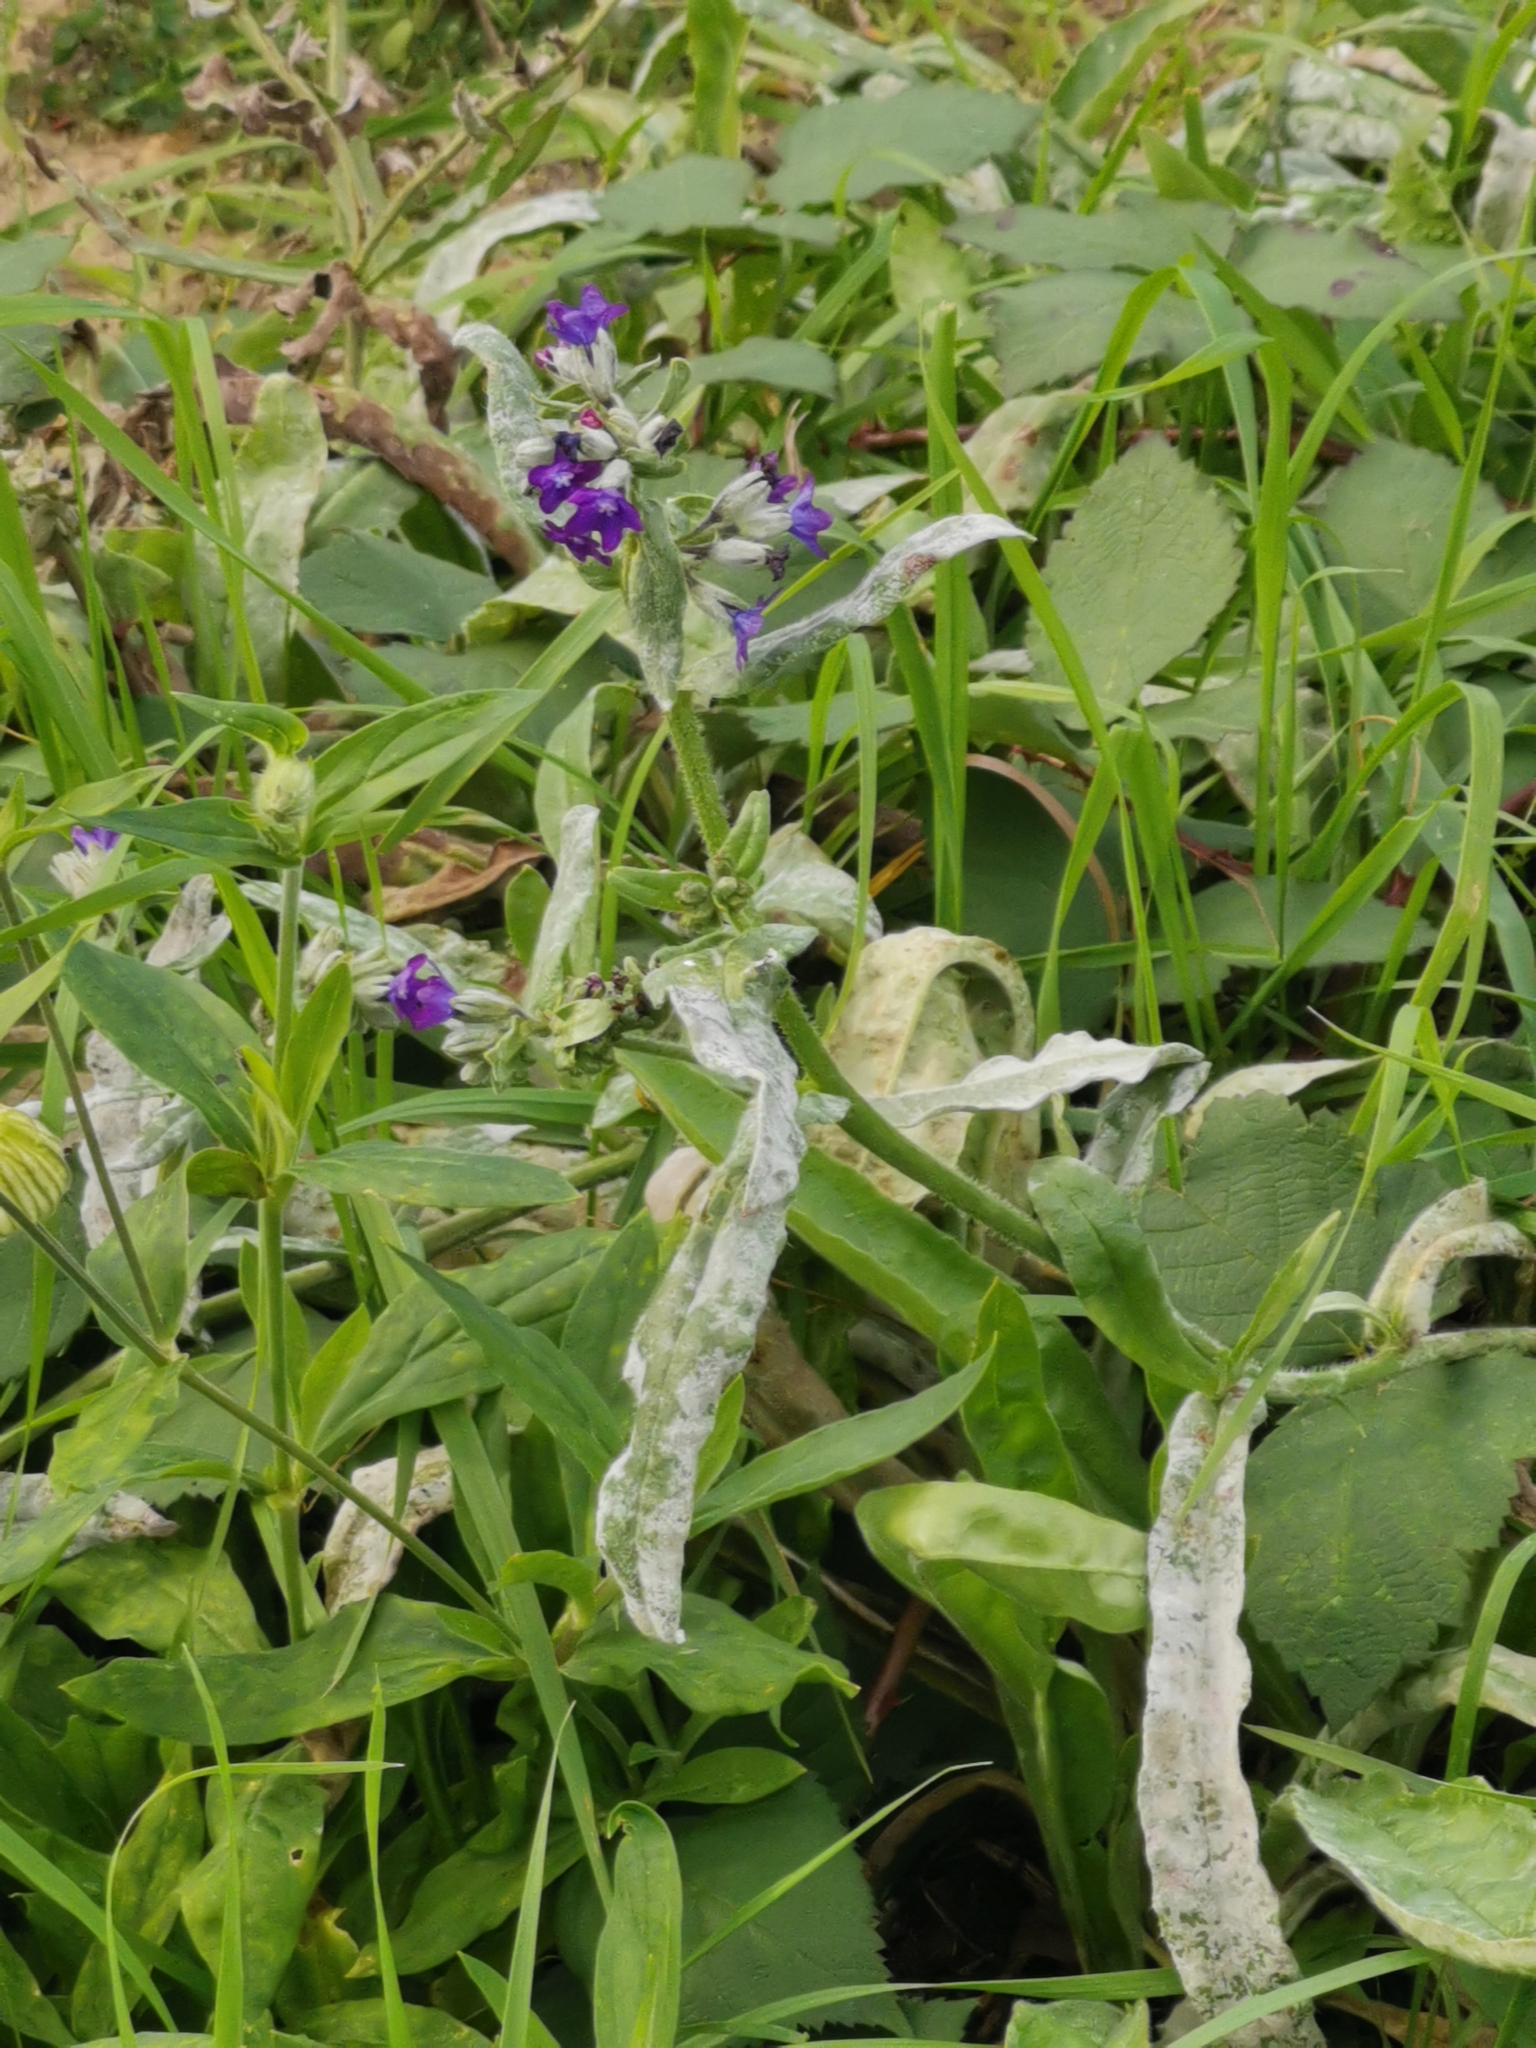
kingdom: Fungi
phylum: Ascomycota
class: Leotiomycetes
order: Helotiales
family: Erysiphaceae
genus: Erysiphe
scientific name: Erysiphe lycopsidis
